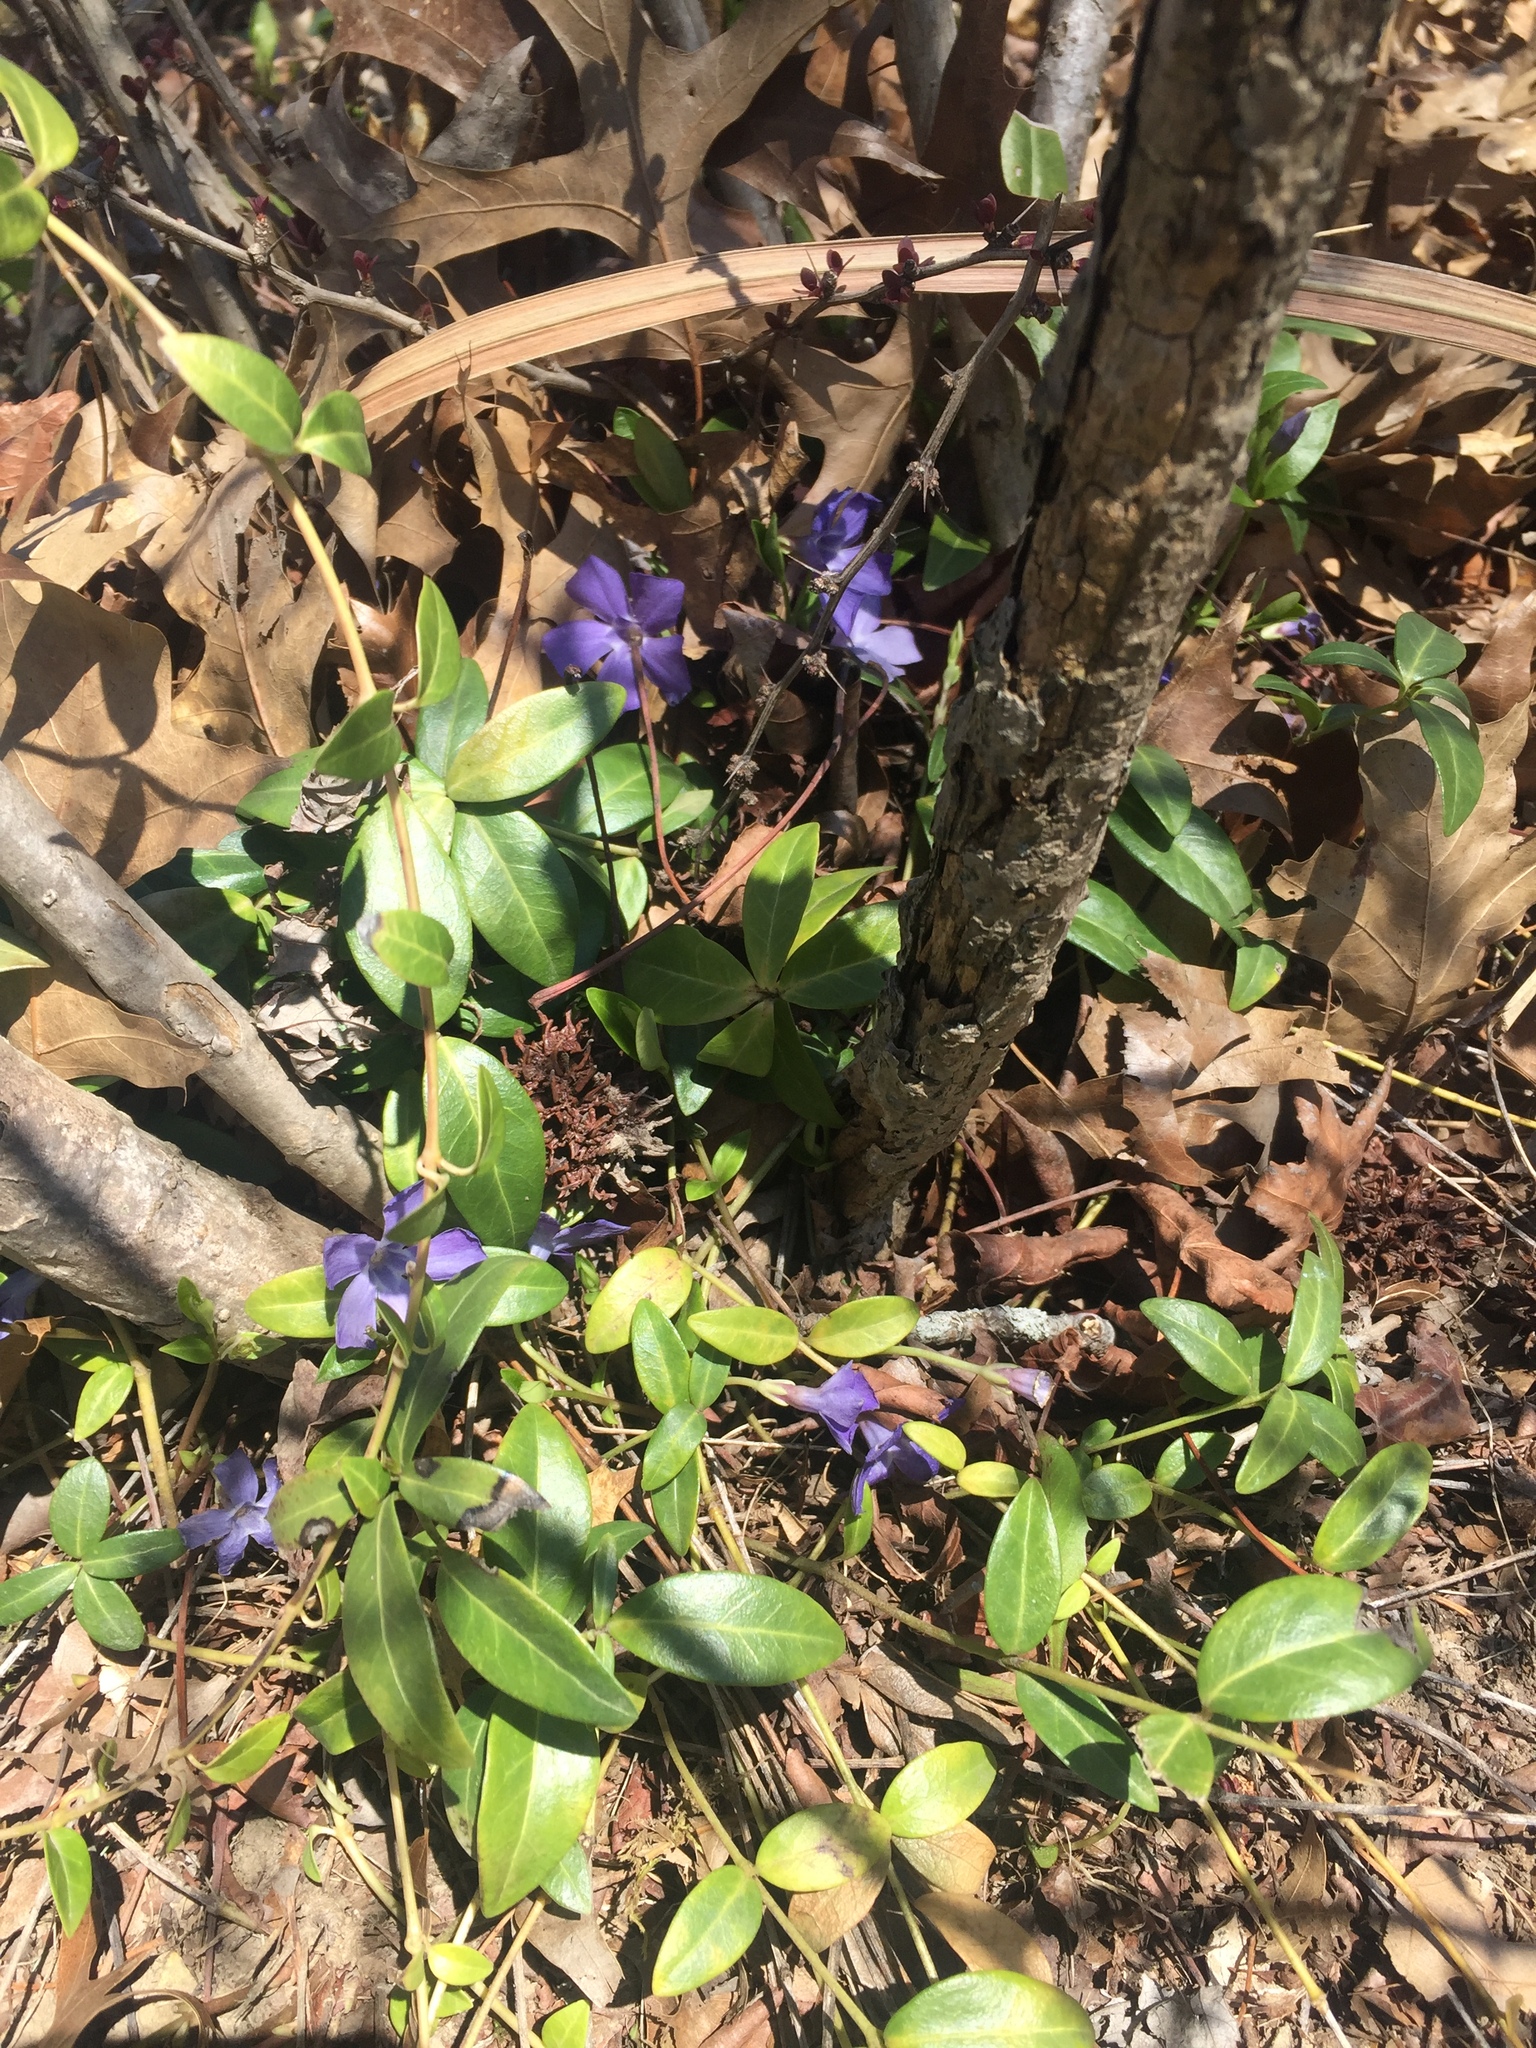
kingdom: Plantae
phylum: Tracheophyta
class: Magnoliopsida
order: Gentianales
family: Apocynaceae
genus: Vinca
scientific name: Vinca minor
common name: Lesser periwinkle
